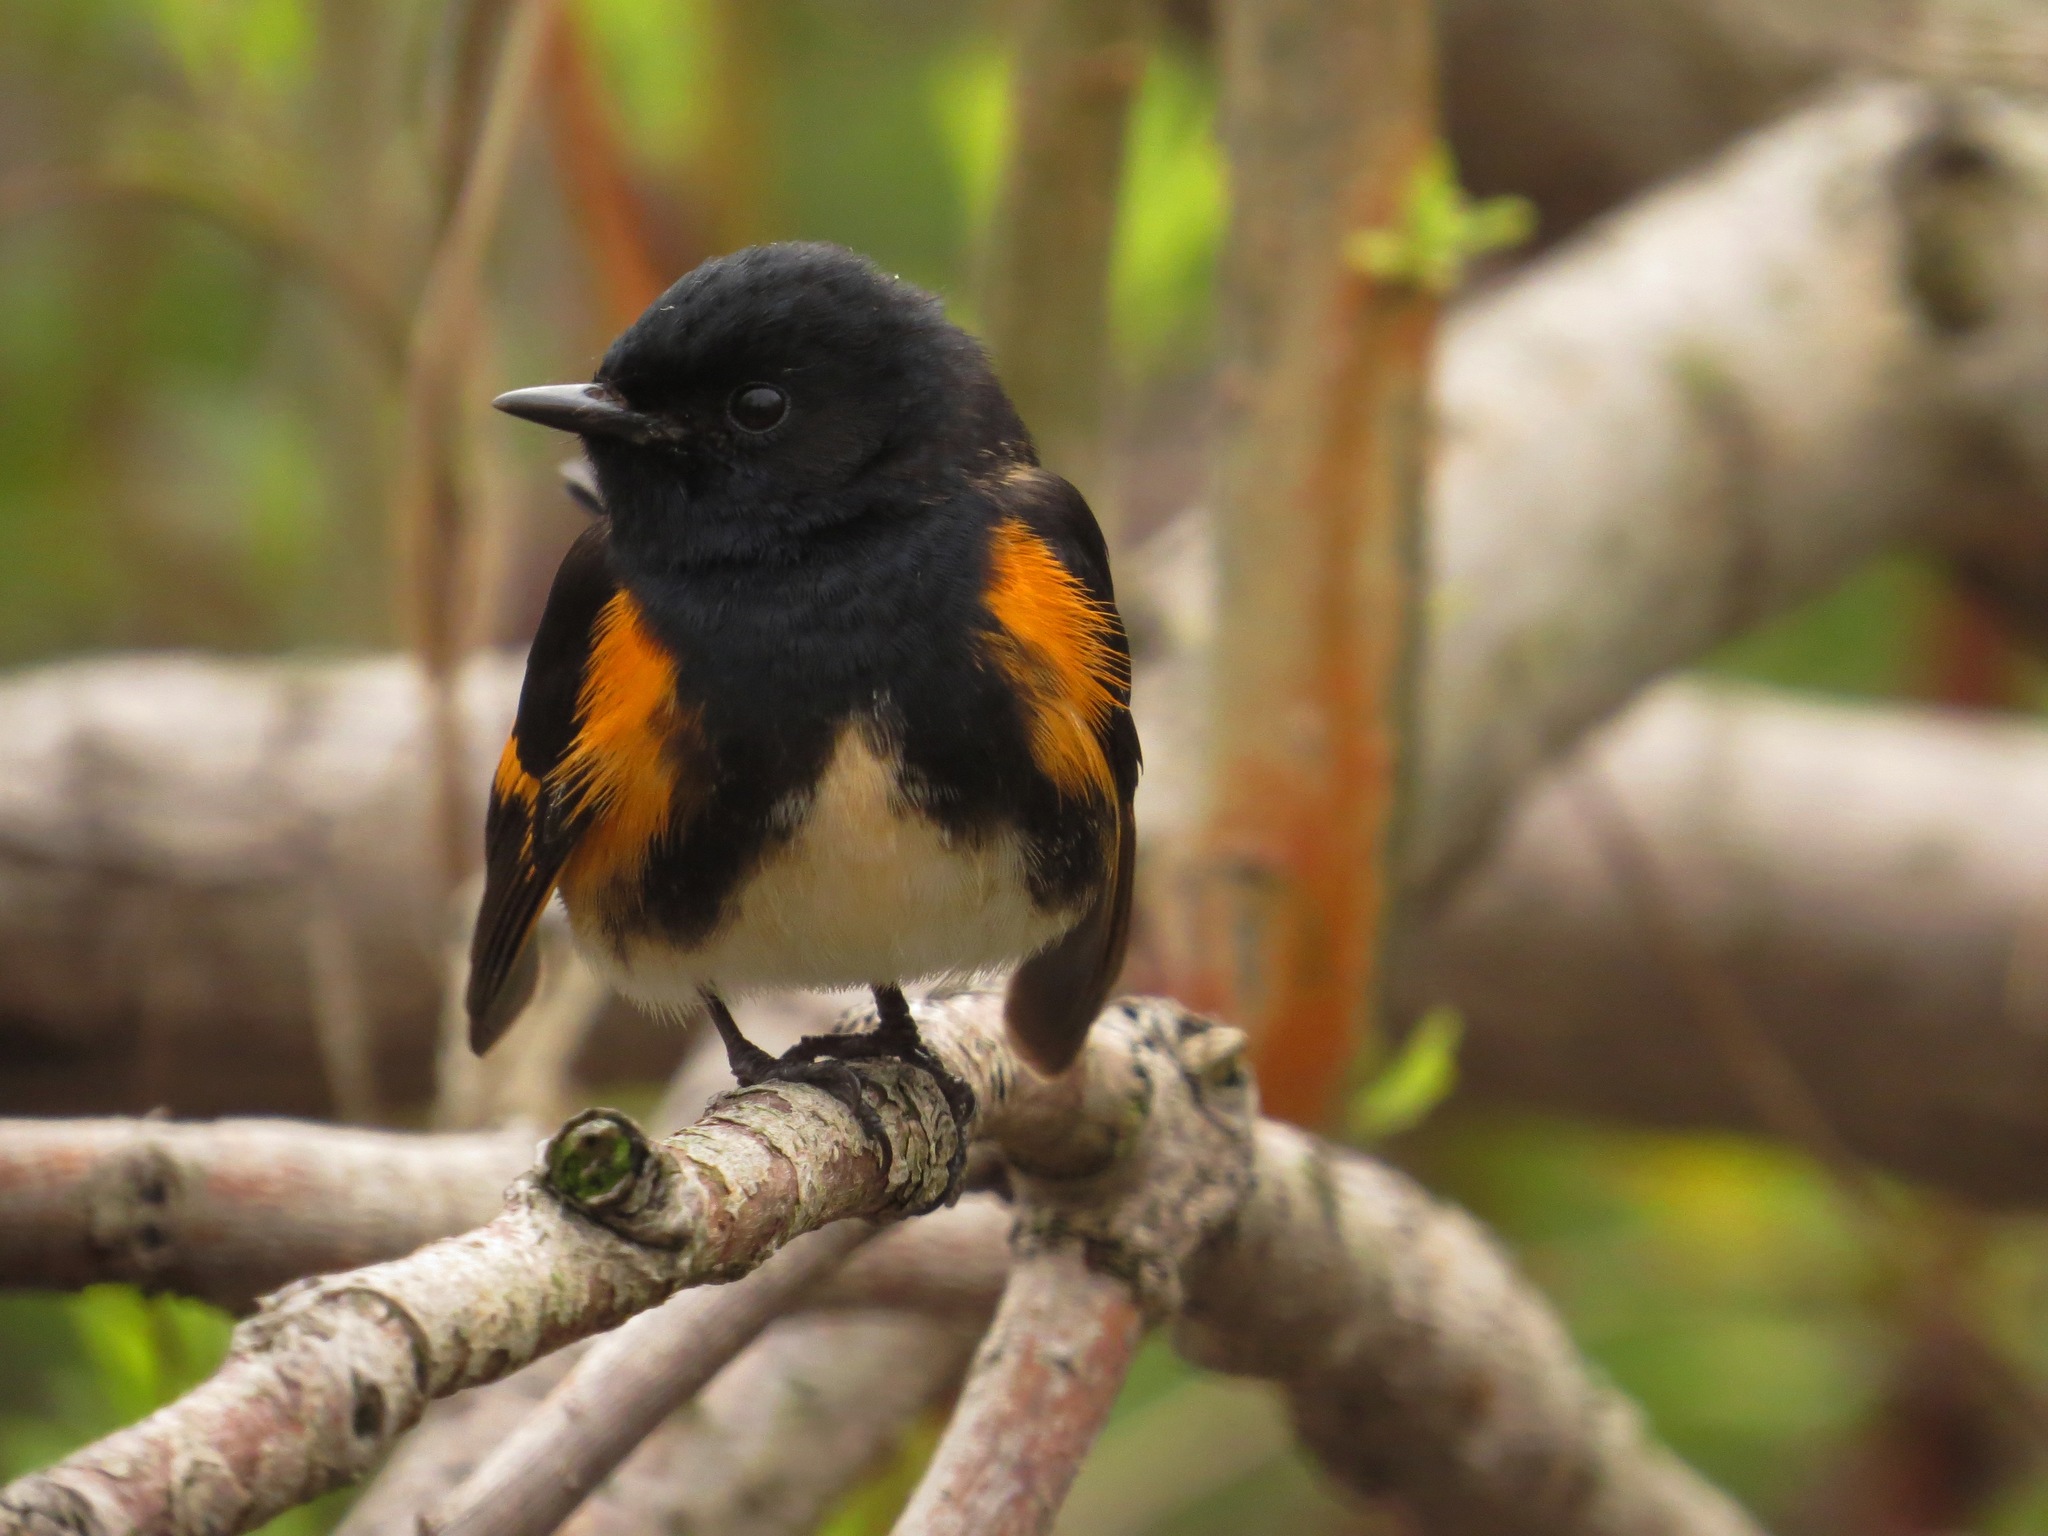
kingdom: Animalia
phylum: Chordata
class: Aves
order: Passeriformes
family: Parulidae
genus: Setophaga
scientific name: Setophaga ruticilla
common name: American redstart
